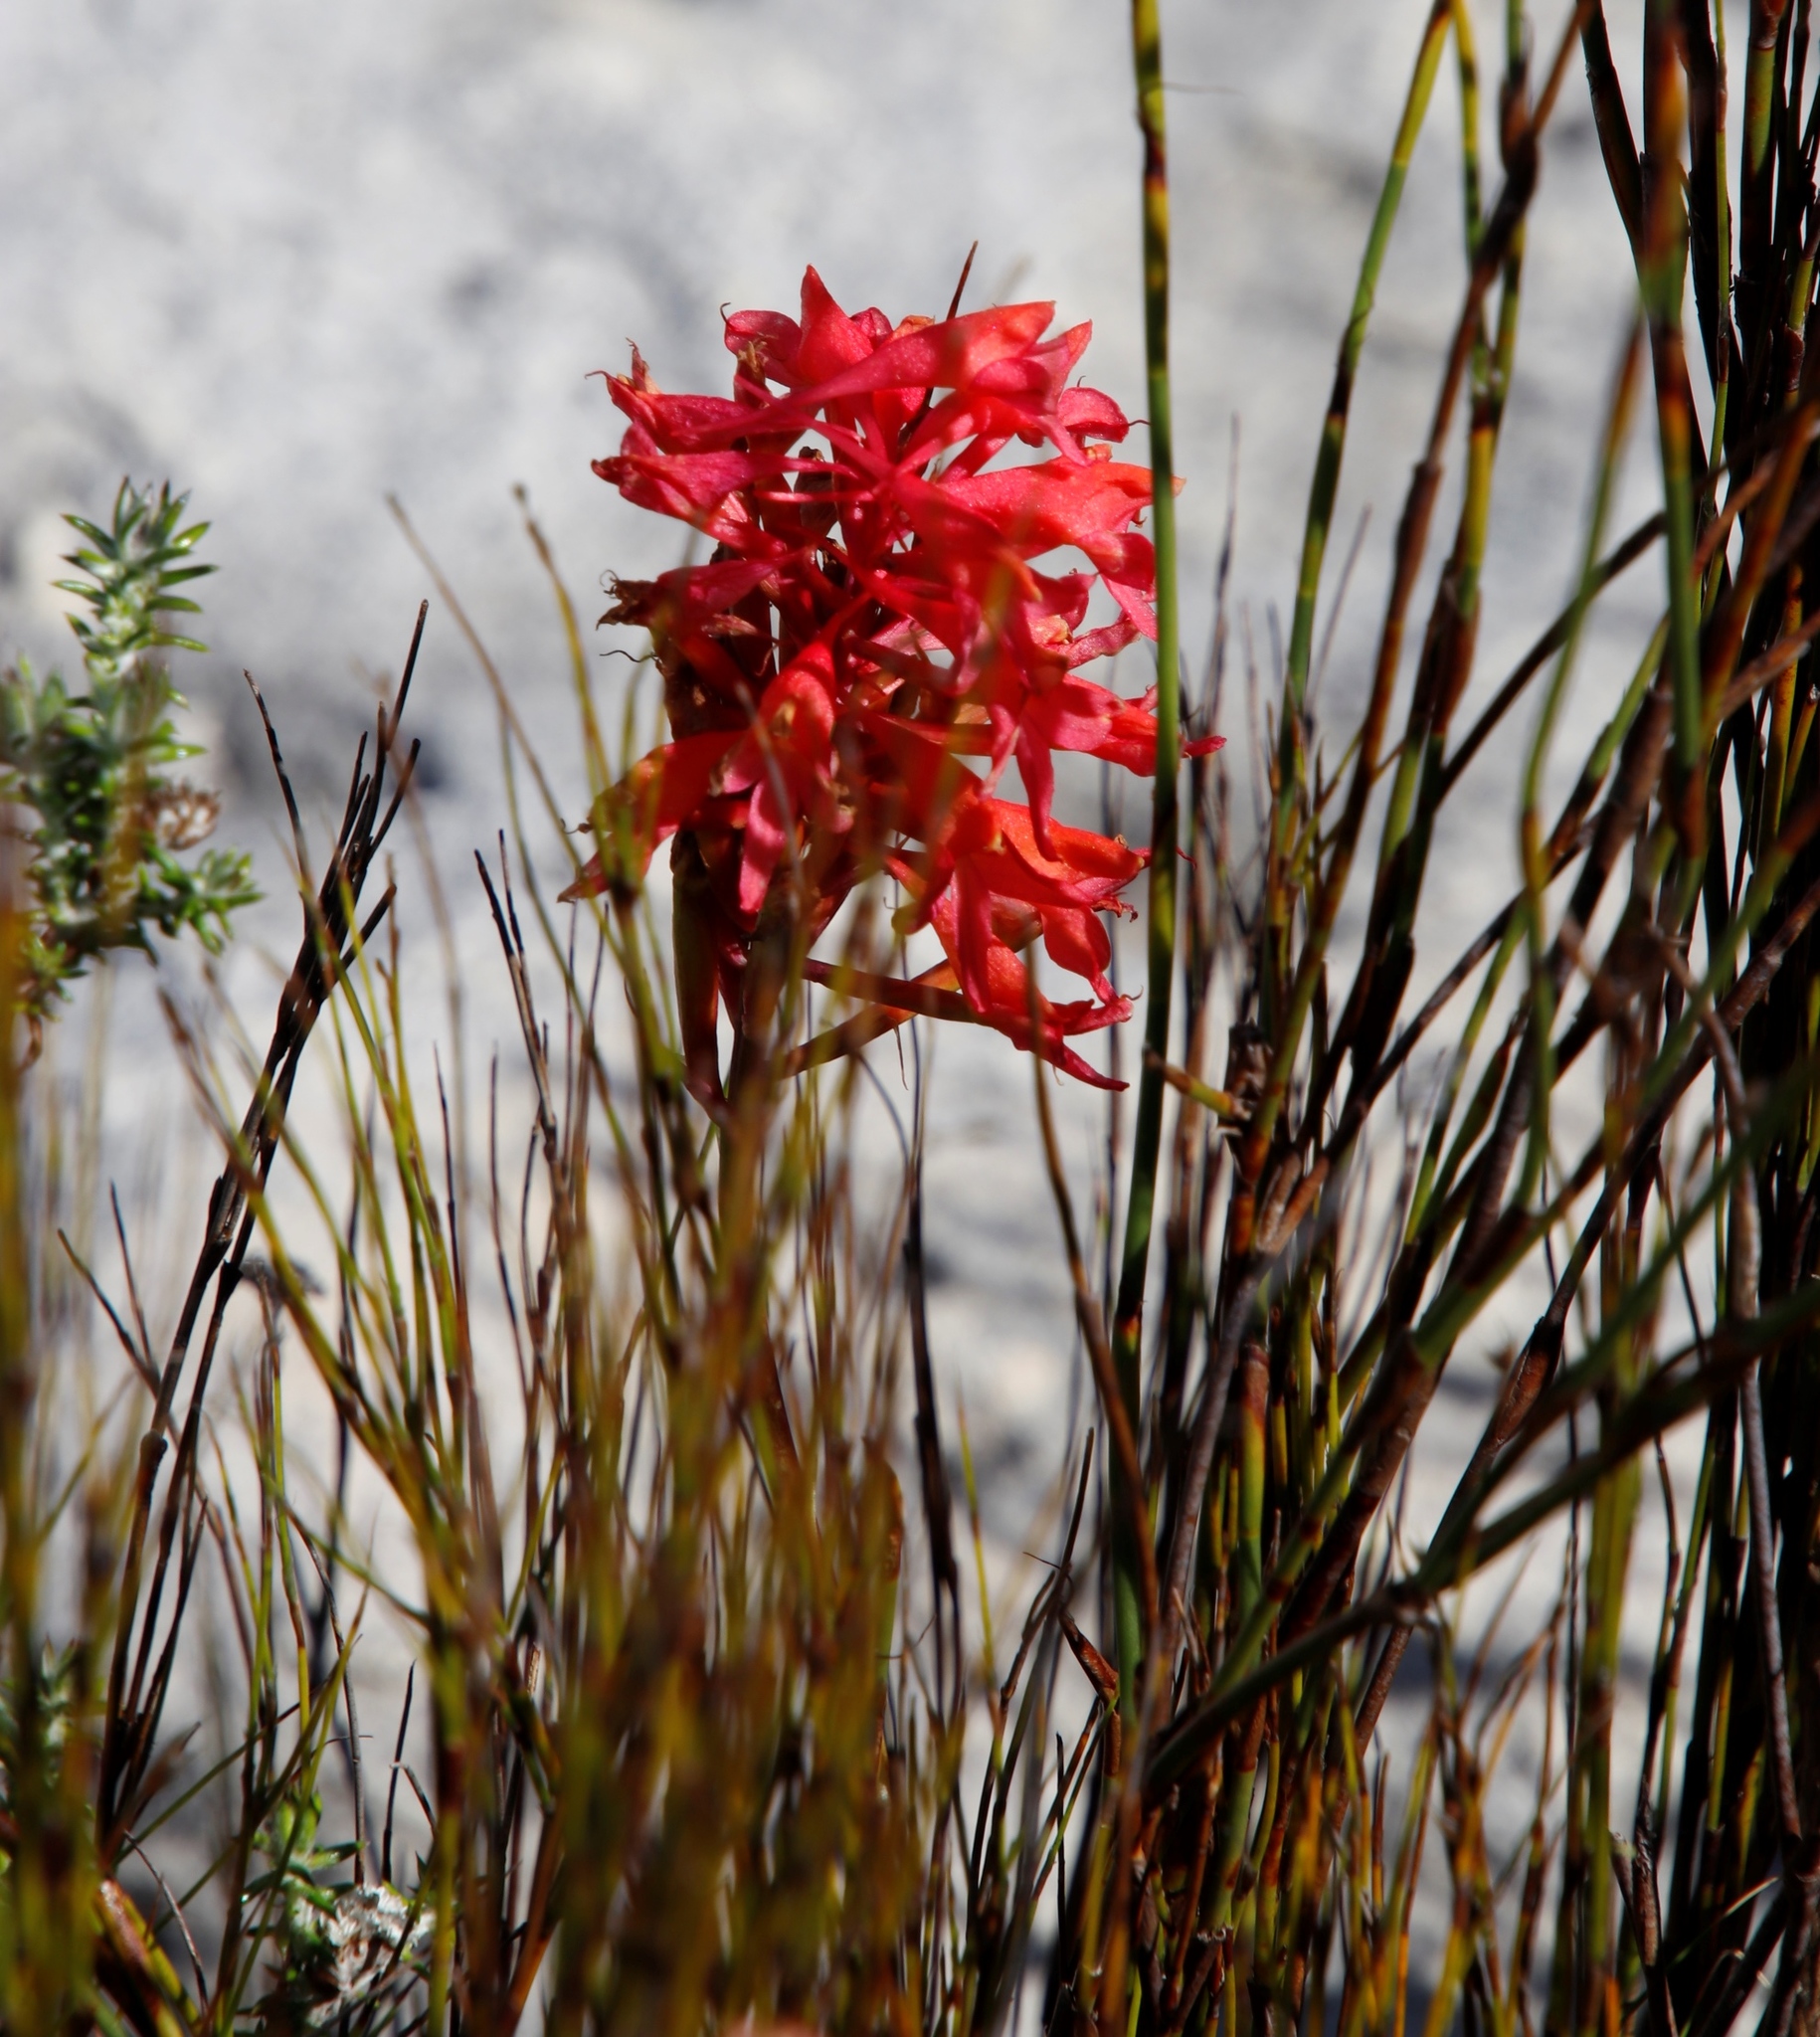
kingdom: Plantae
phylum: Tracheophyta
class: Liliopsida
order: Asparagales
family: Orchidaceae
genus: Disa
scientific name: Disa ferruginea
